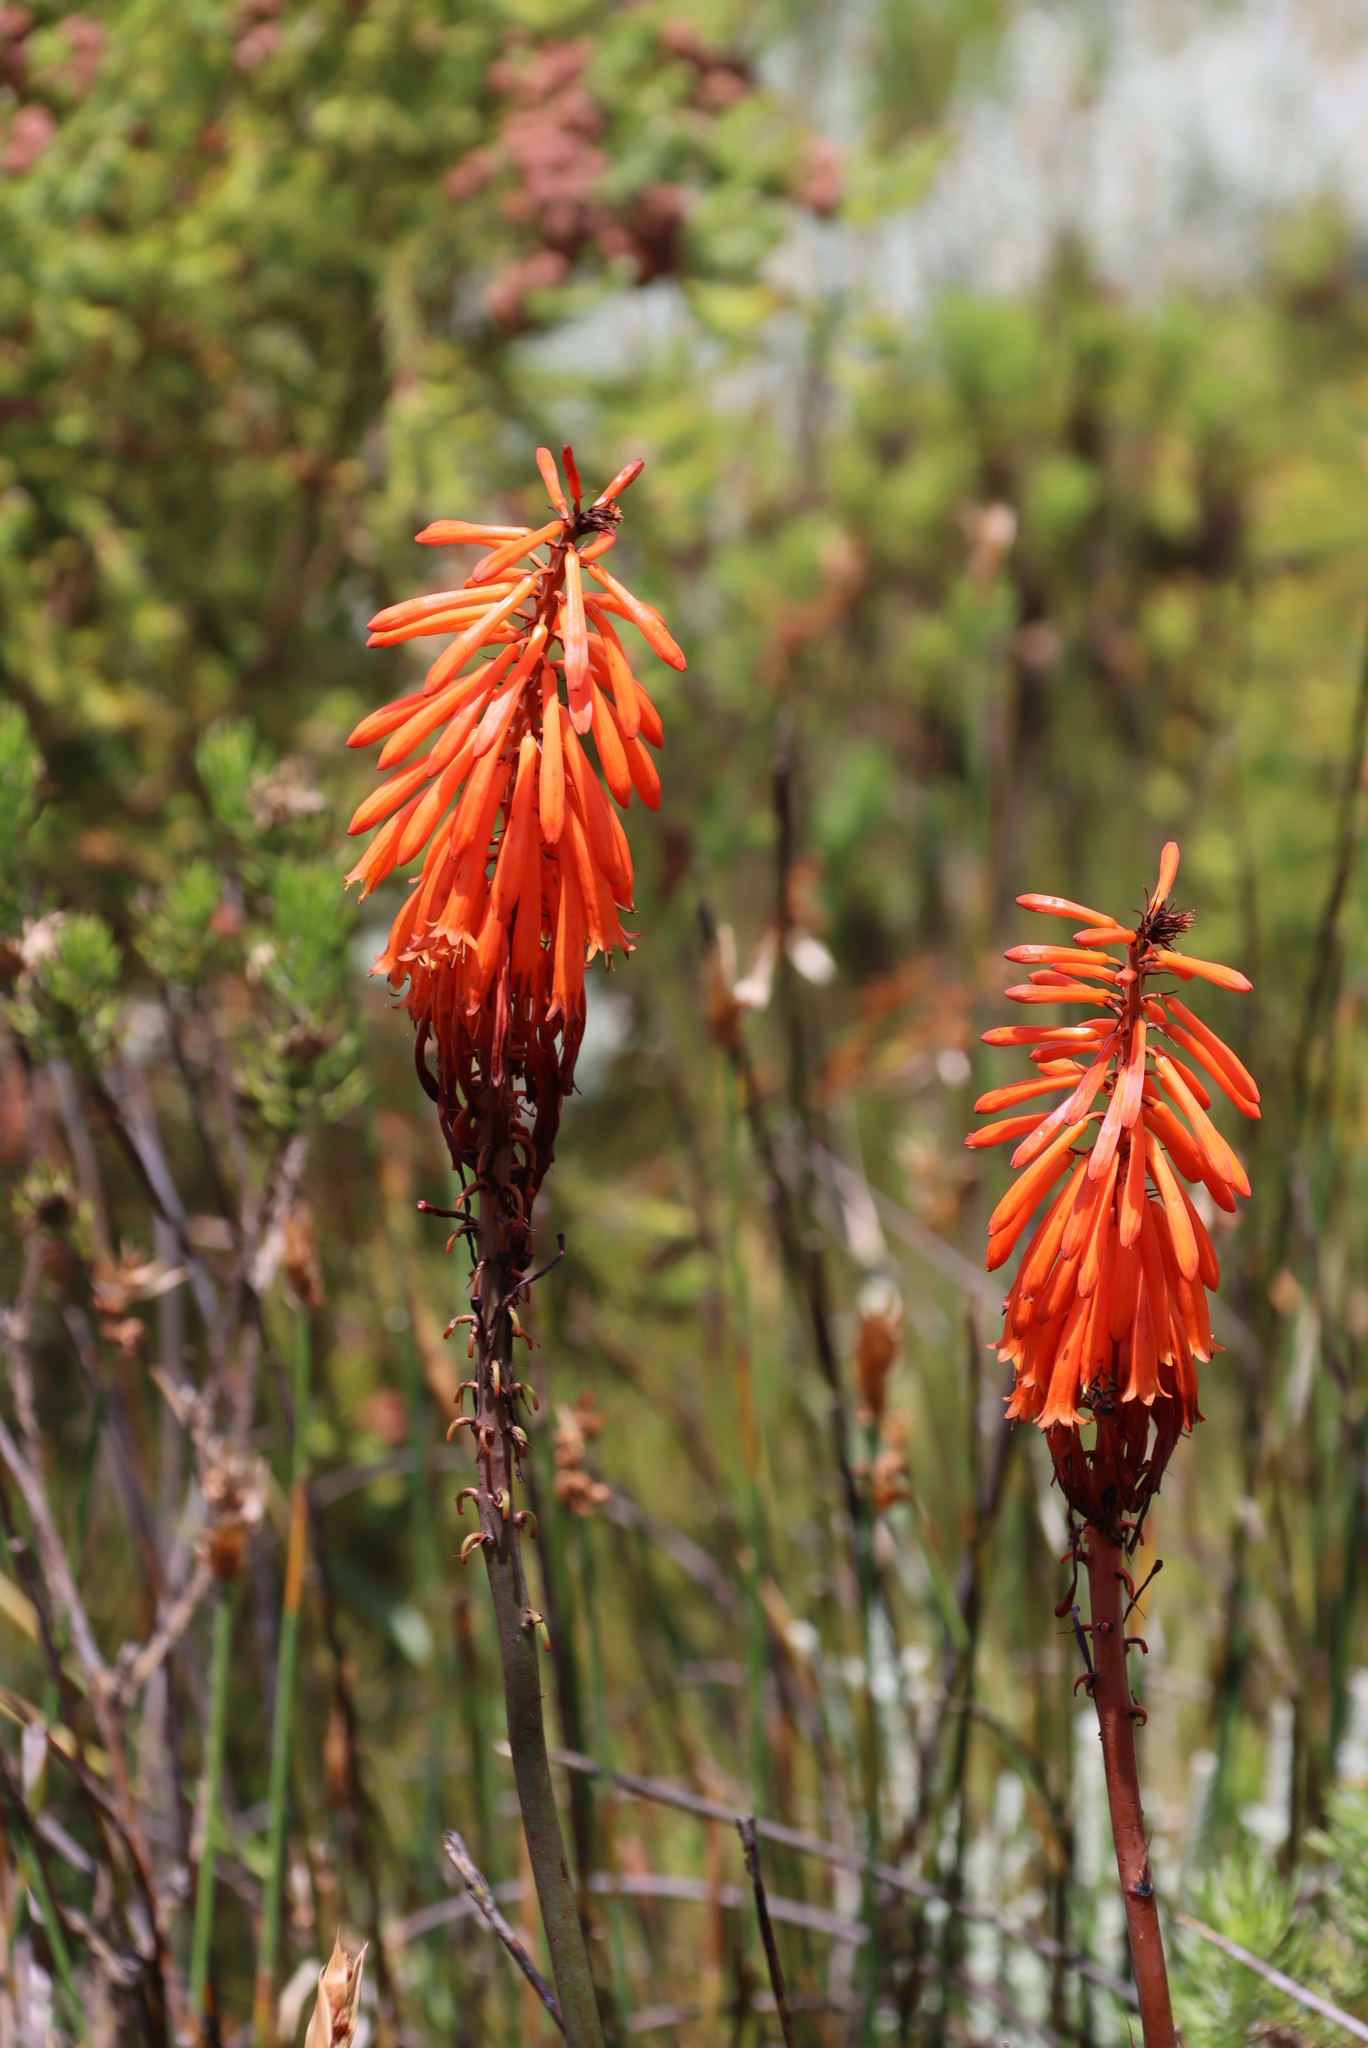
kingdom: Plantae
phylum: Tracheophyta
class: Liliopsida
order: Asparagales
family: Asphodelaceae
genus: Kniphofia
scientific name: Kniphofia tabularis
